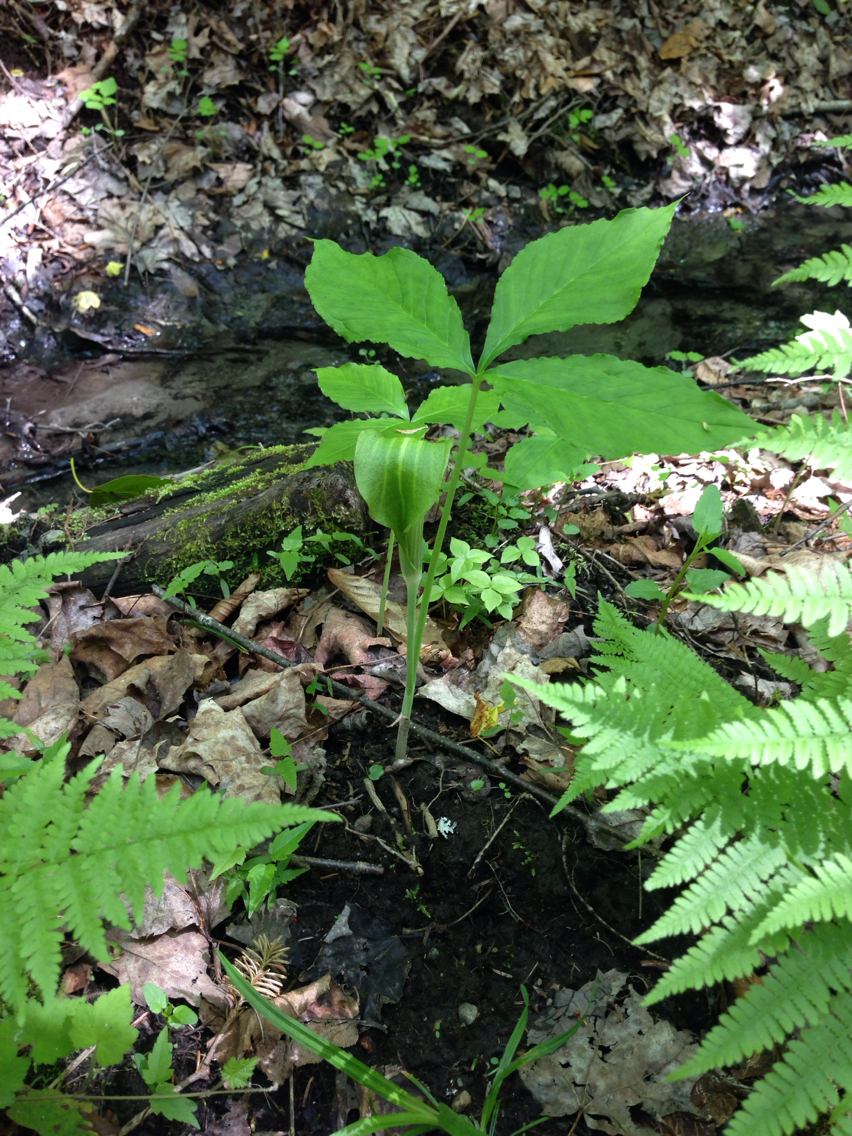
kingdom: Plantae
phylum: Tracheophyta
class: Liliopsida
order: Alismatales
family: Araceae
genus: Arisaema
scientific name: Arisaema triphyllum
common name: Jack-in-the-pulpit
